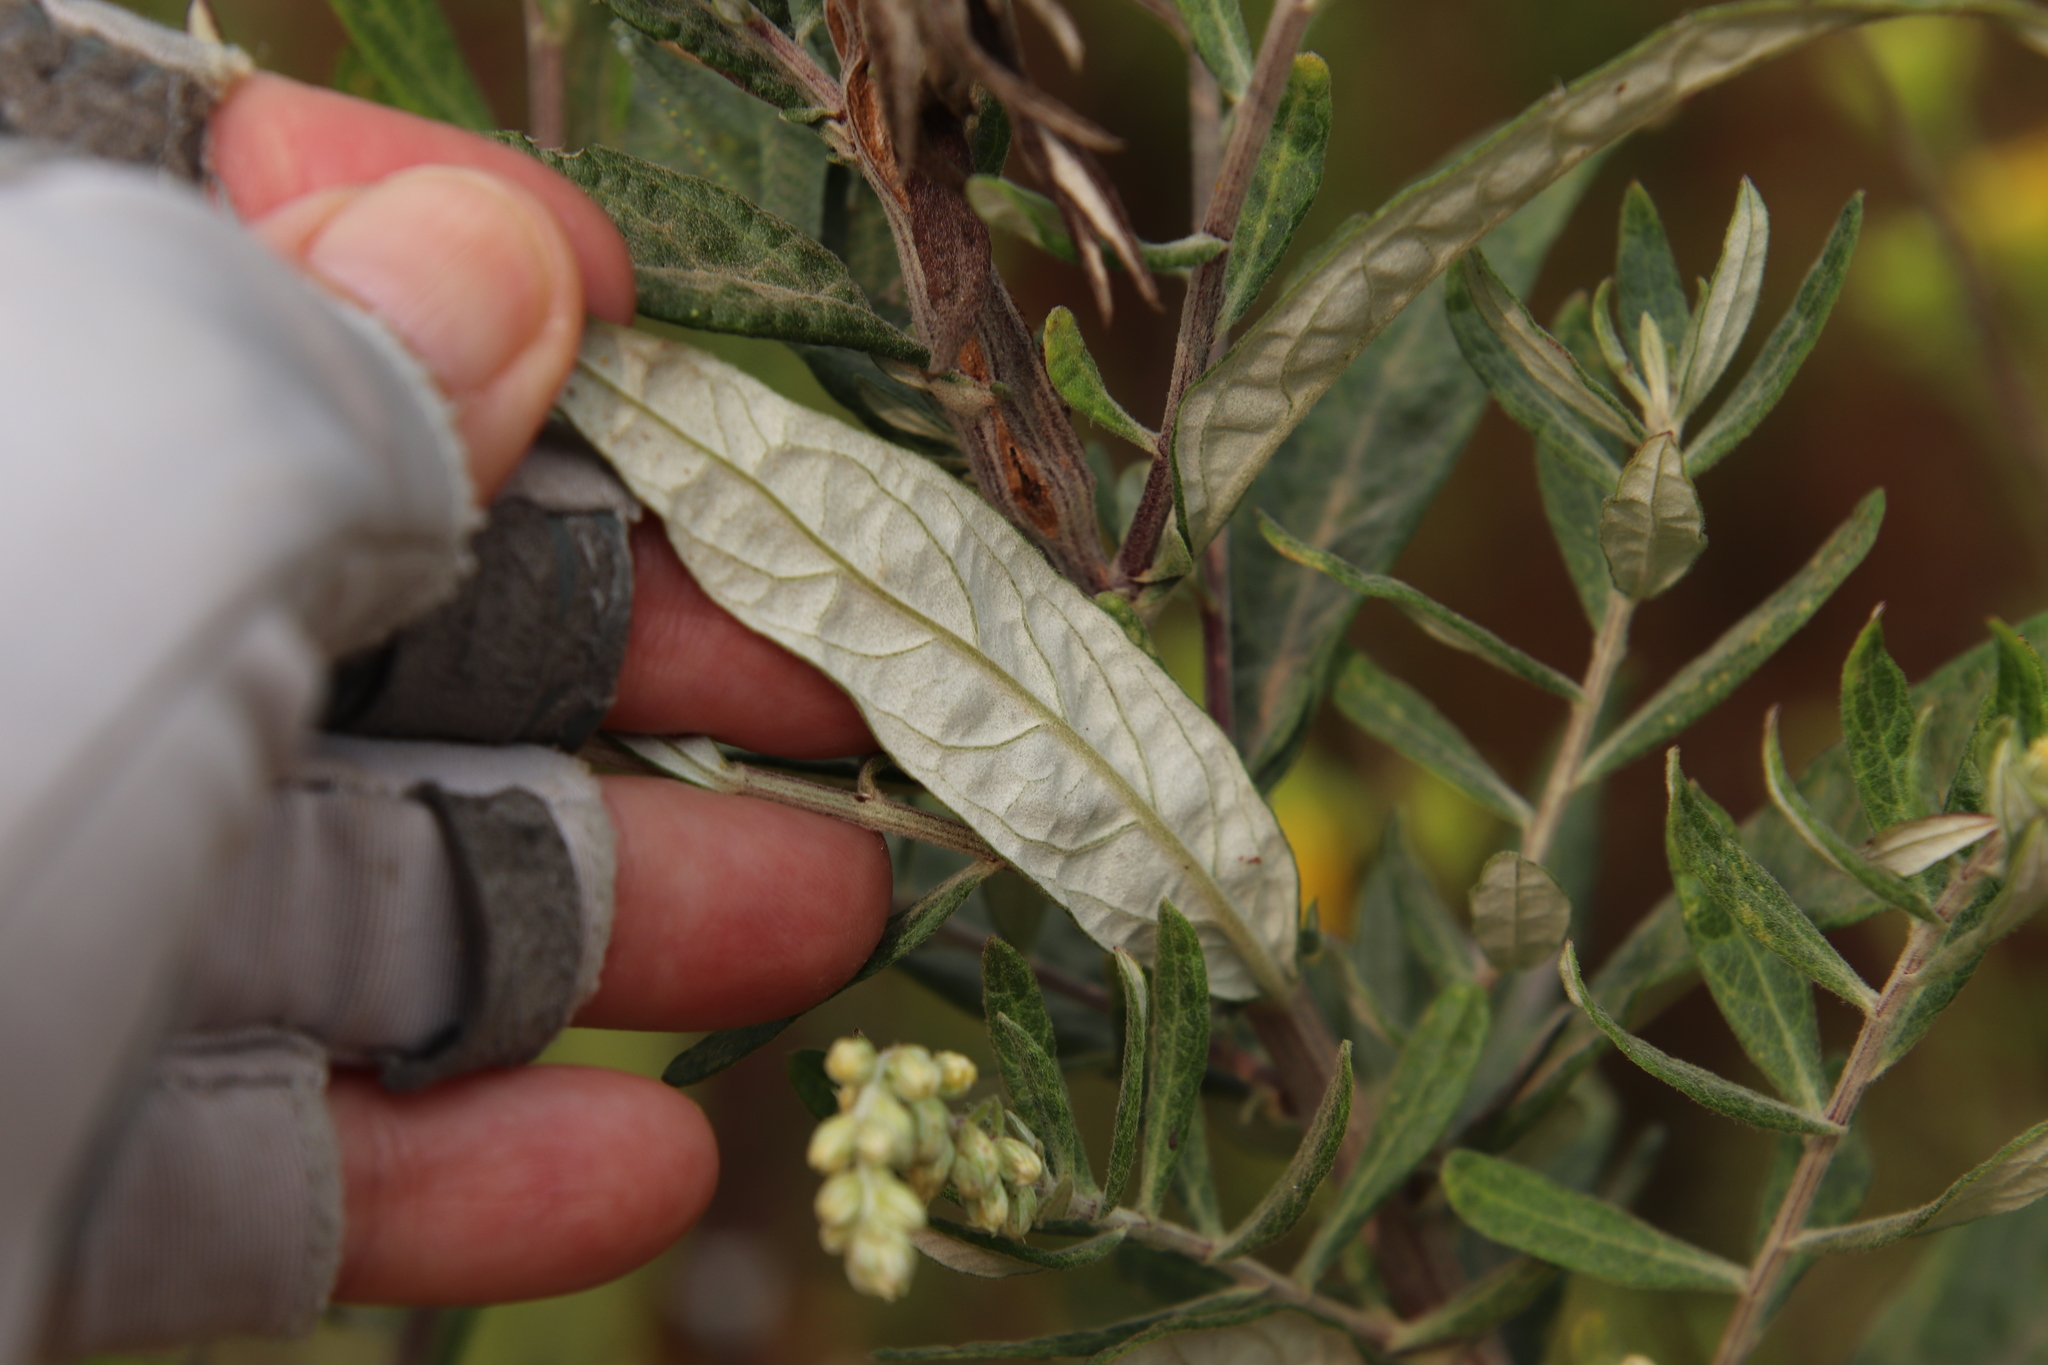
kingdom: Plantae
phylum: Tracheophyta
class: Magnoliopsida
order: Asterales
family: Asteraceae
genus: Artemisia
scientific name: Artemisia douglasiana
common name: Northwest mugwort
